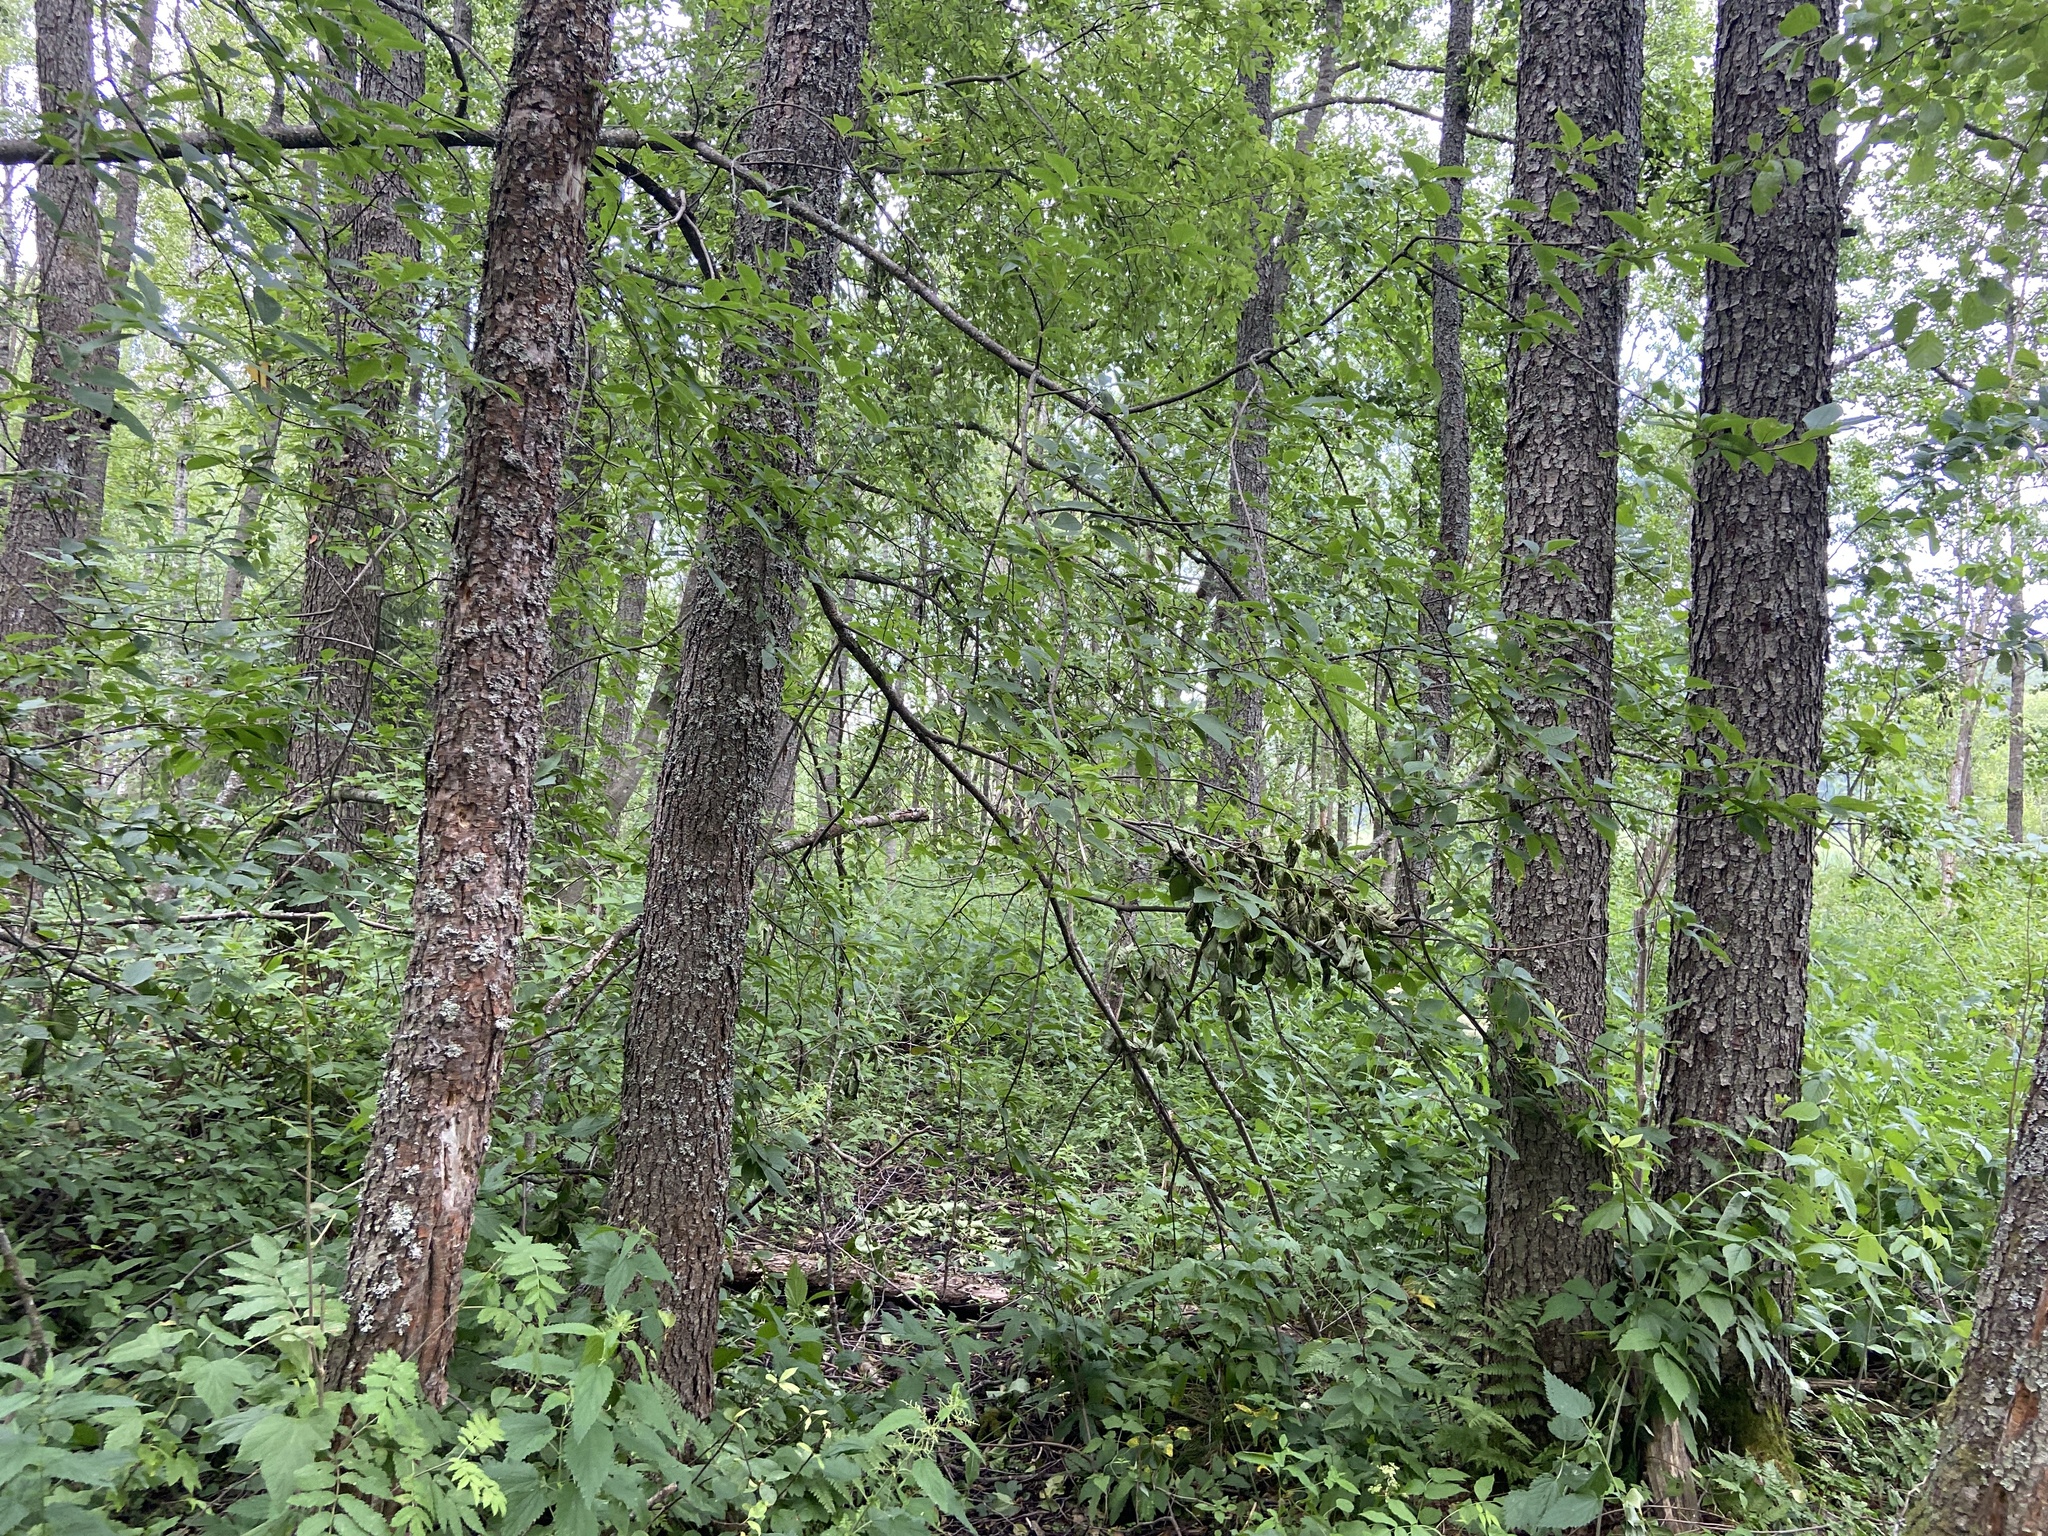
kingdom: Plantae
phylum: Tracheophyta
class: Magnoliopsida
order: Fagales
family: Betulaceae
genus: Alnus
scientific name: Alnus glutinosa
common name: Black alder
